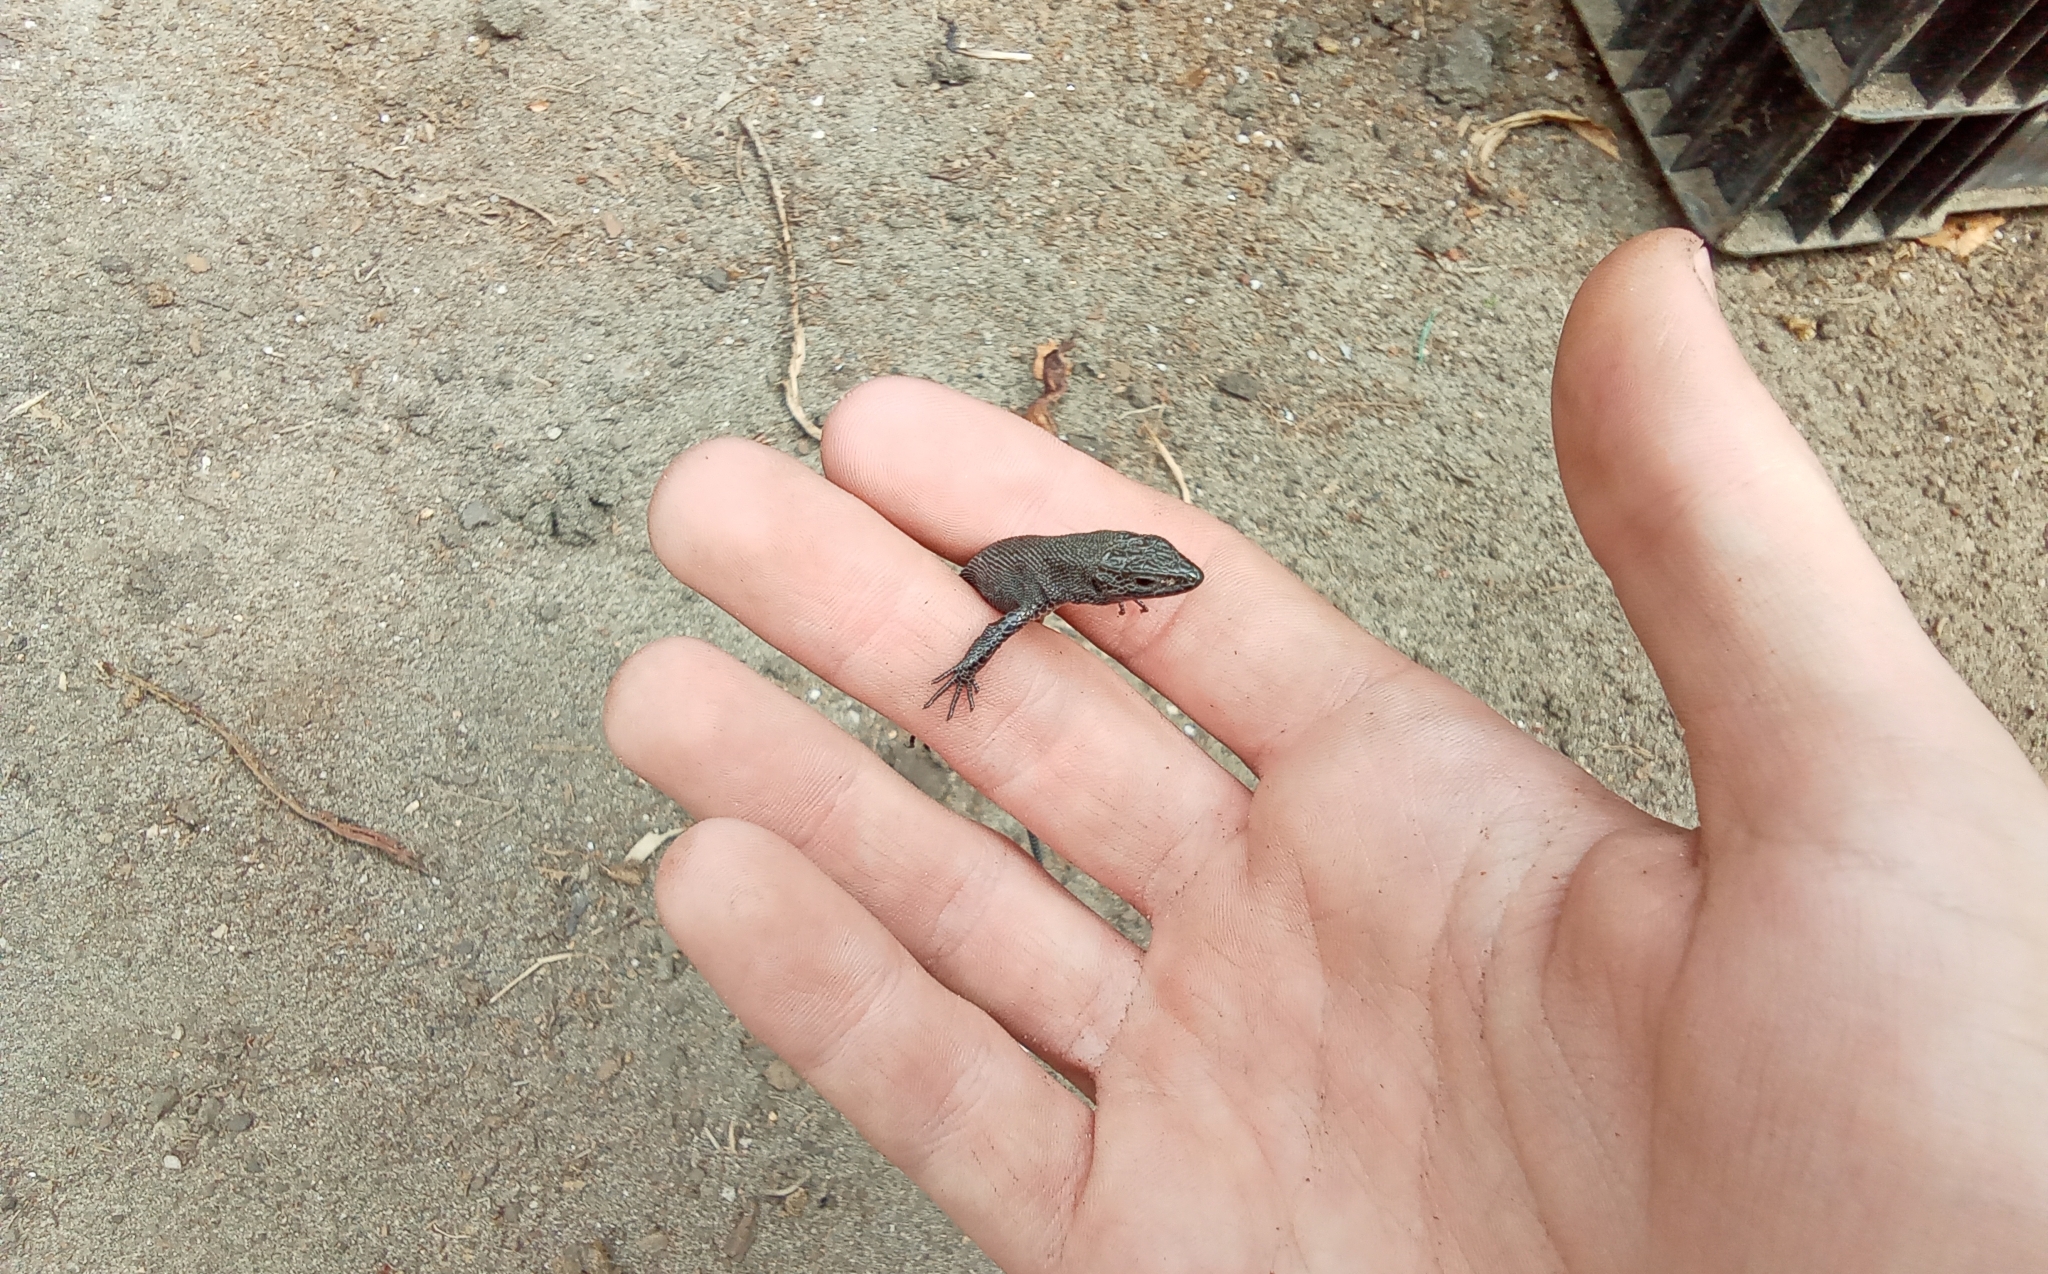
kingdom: Animalia
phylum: Chordata
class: Squamata
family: Lacertidae
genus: Zootoca
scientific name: Zootoca vivipara
